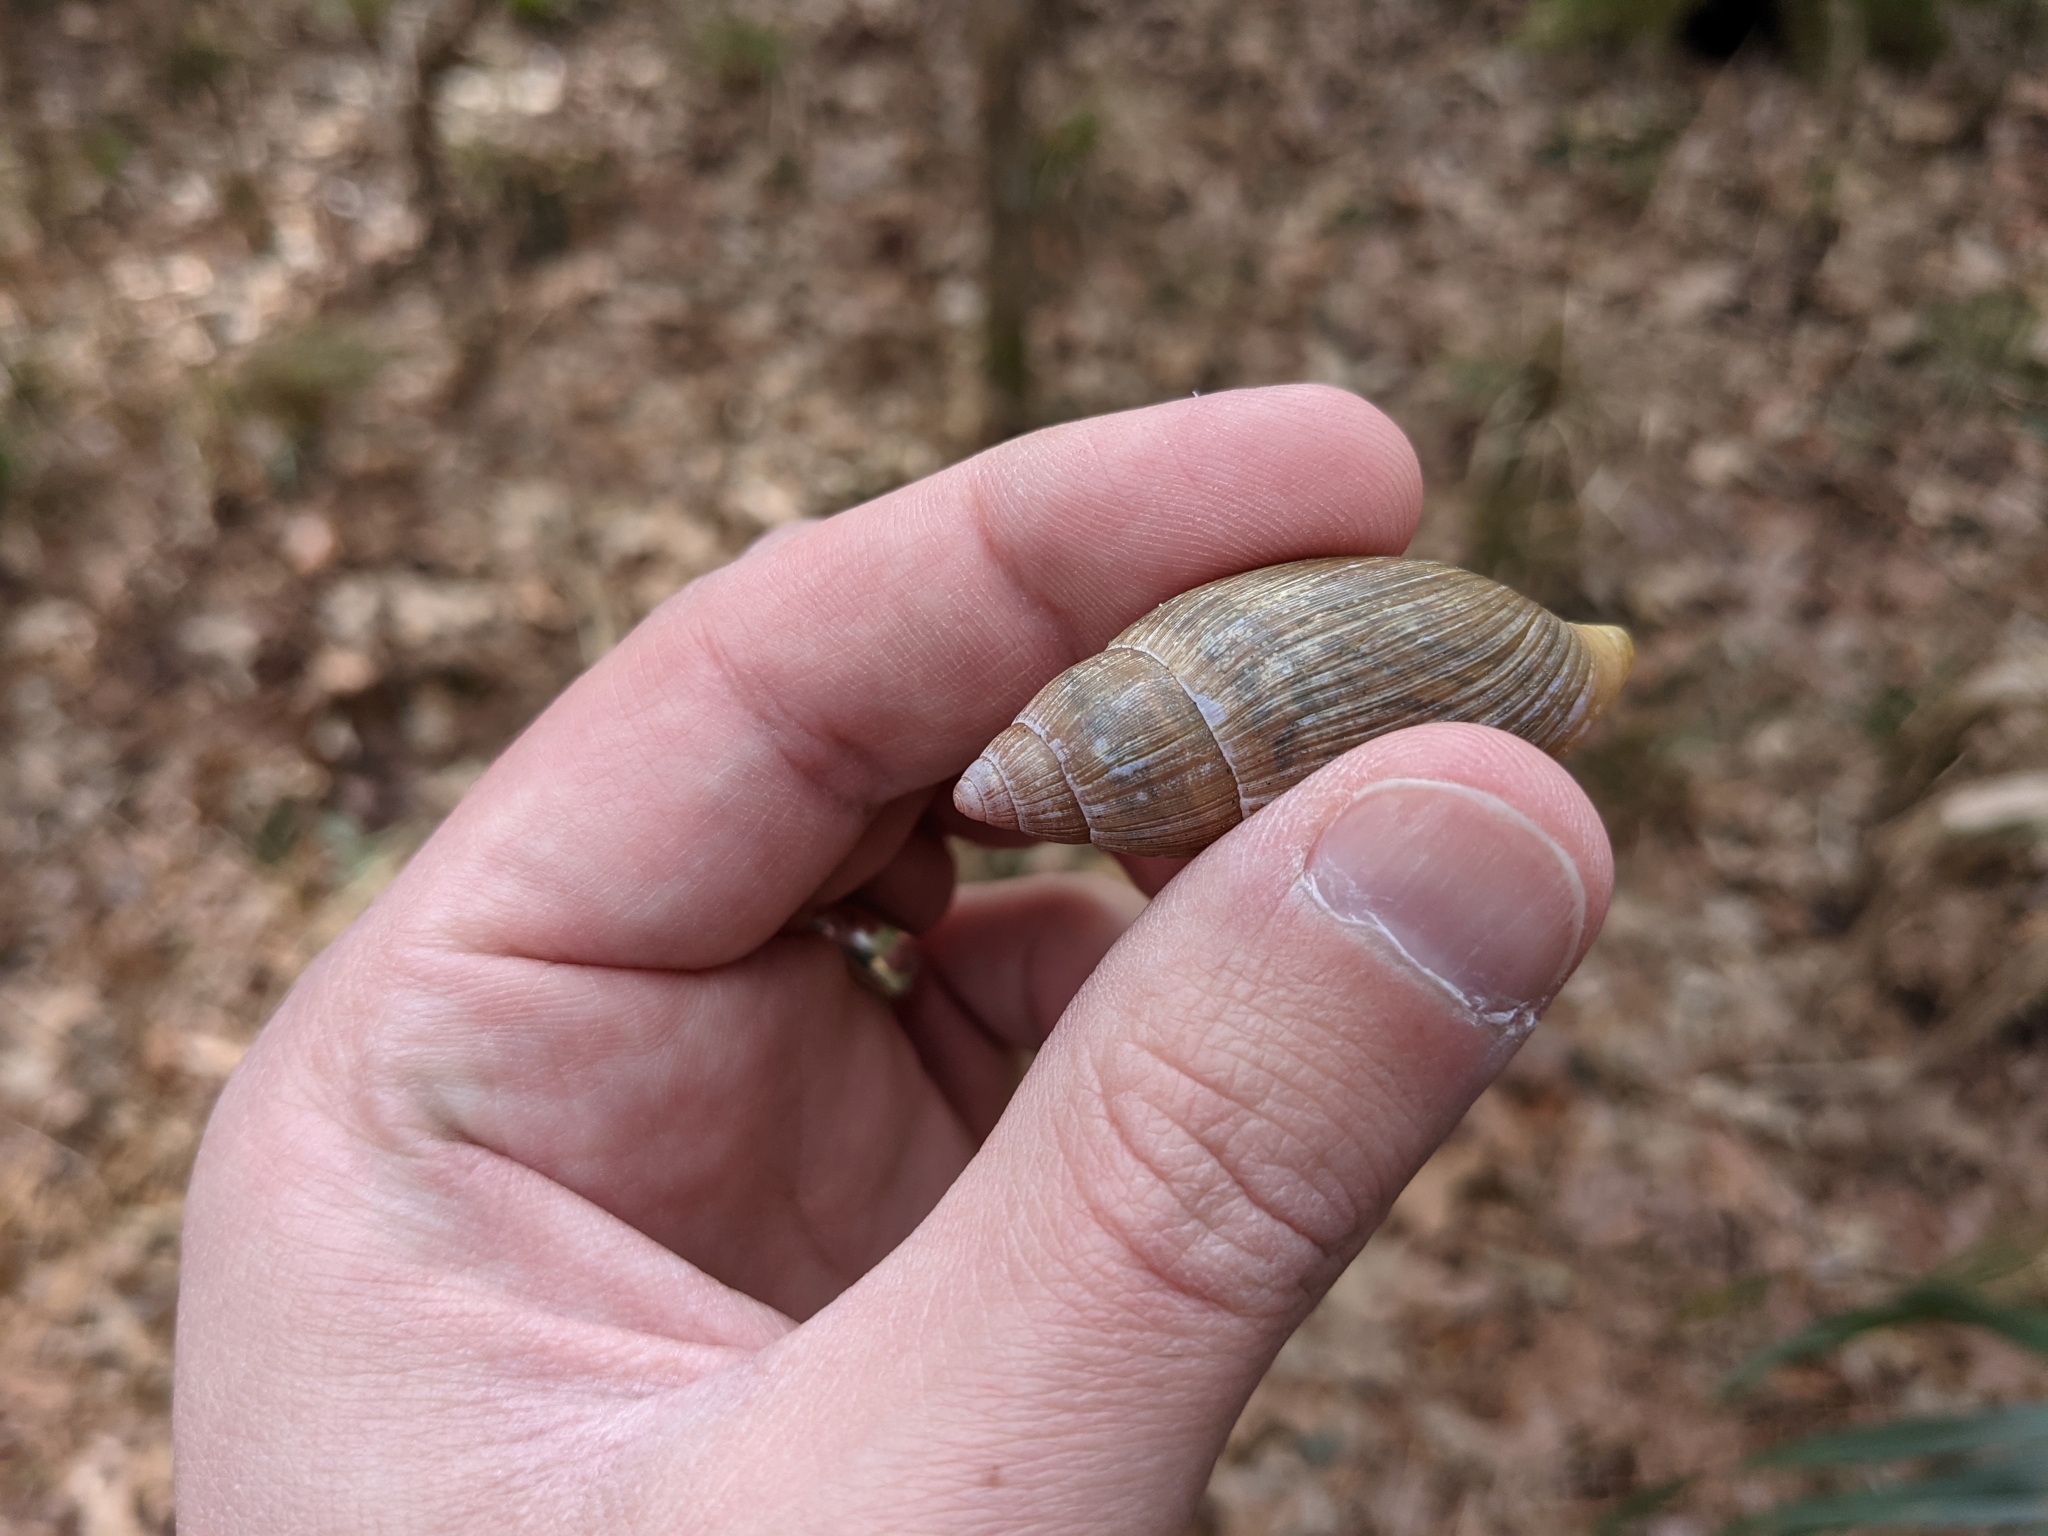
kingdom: Animalia
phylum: Mollusca
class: Gastropoda
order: Stylommatophora
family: Spiraxidae
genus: Euglandina
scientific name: Euglandina rosea
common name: Rosy wolfsnail
